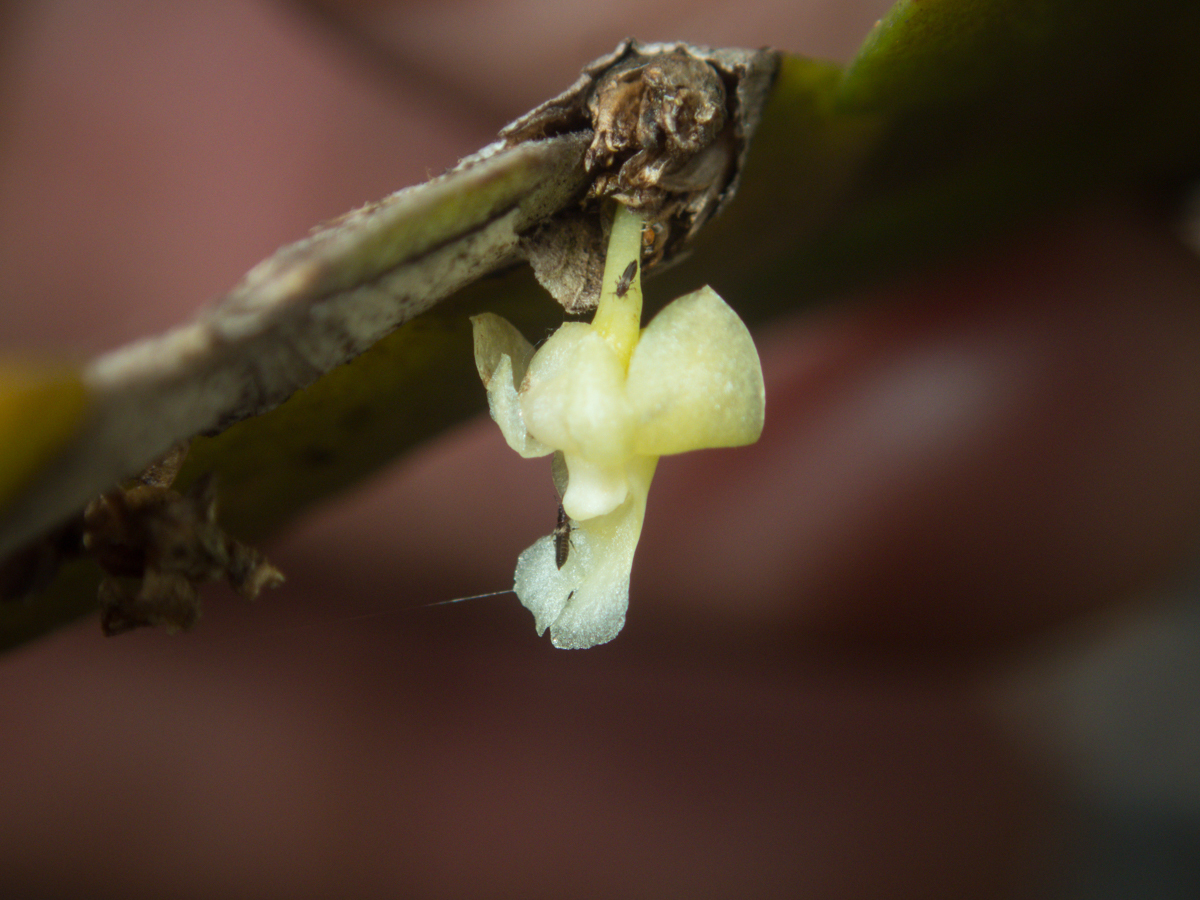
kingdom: Plantae
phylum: Tracheophyta
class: Liliopsida
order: Asparagales
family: Orchidaceae
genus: Dendrobium
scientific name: Dendrobium aloifolium
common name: Aloe-like dendrobium
